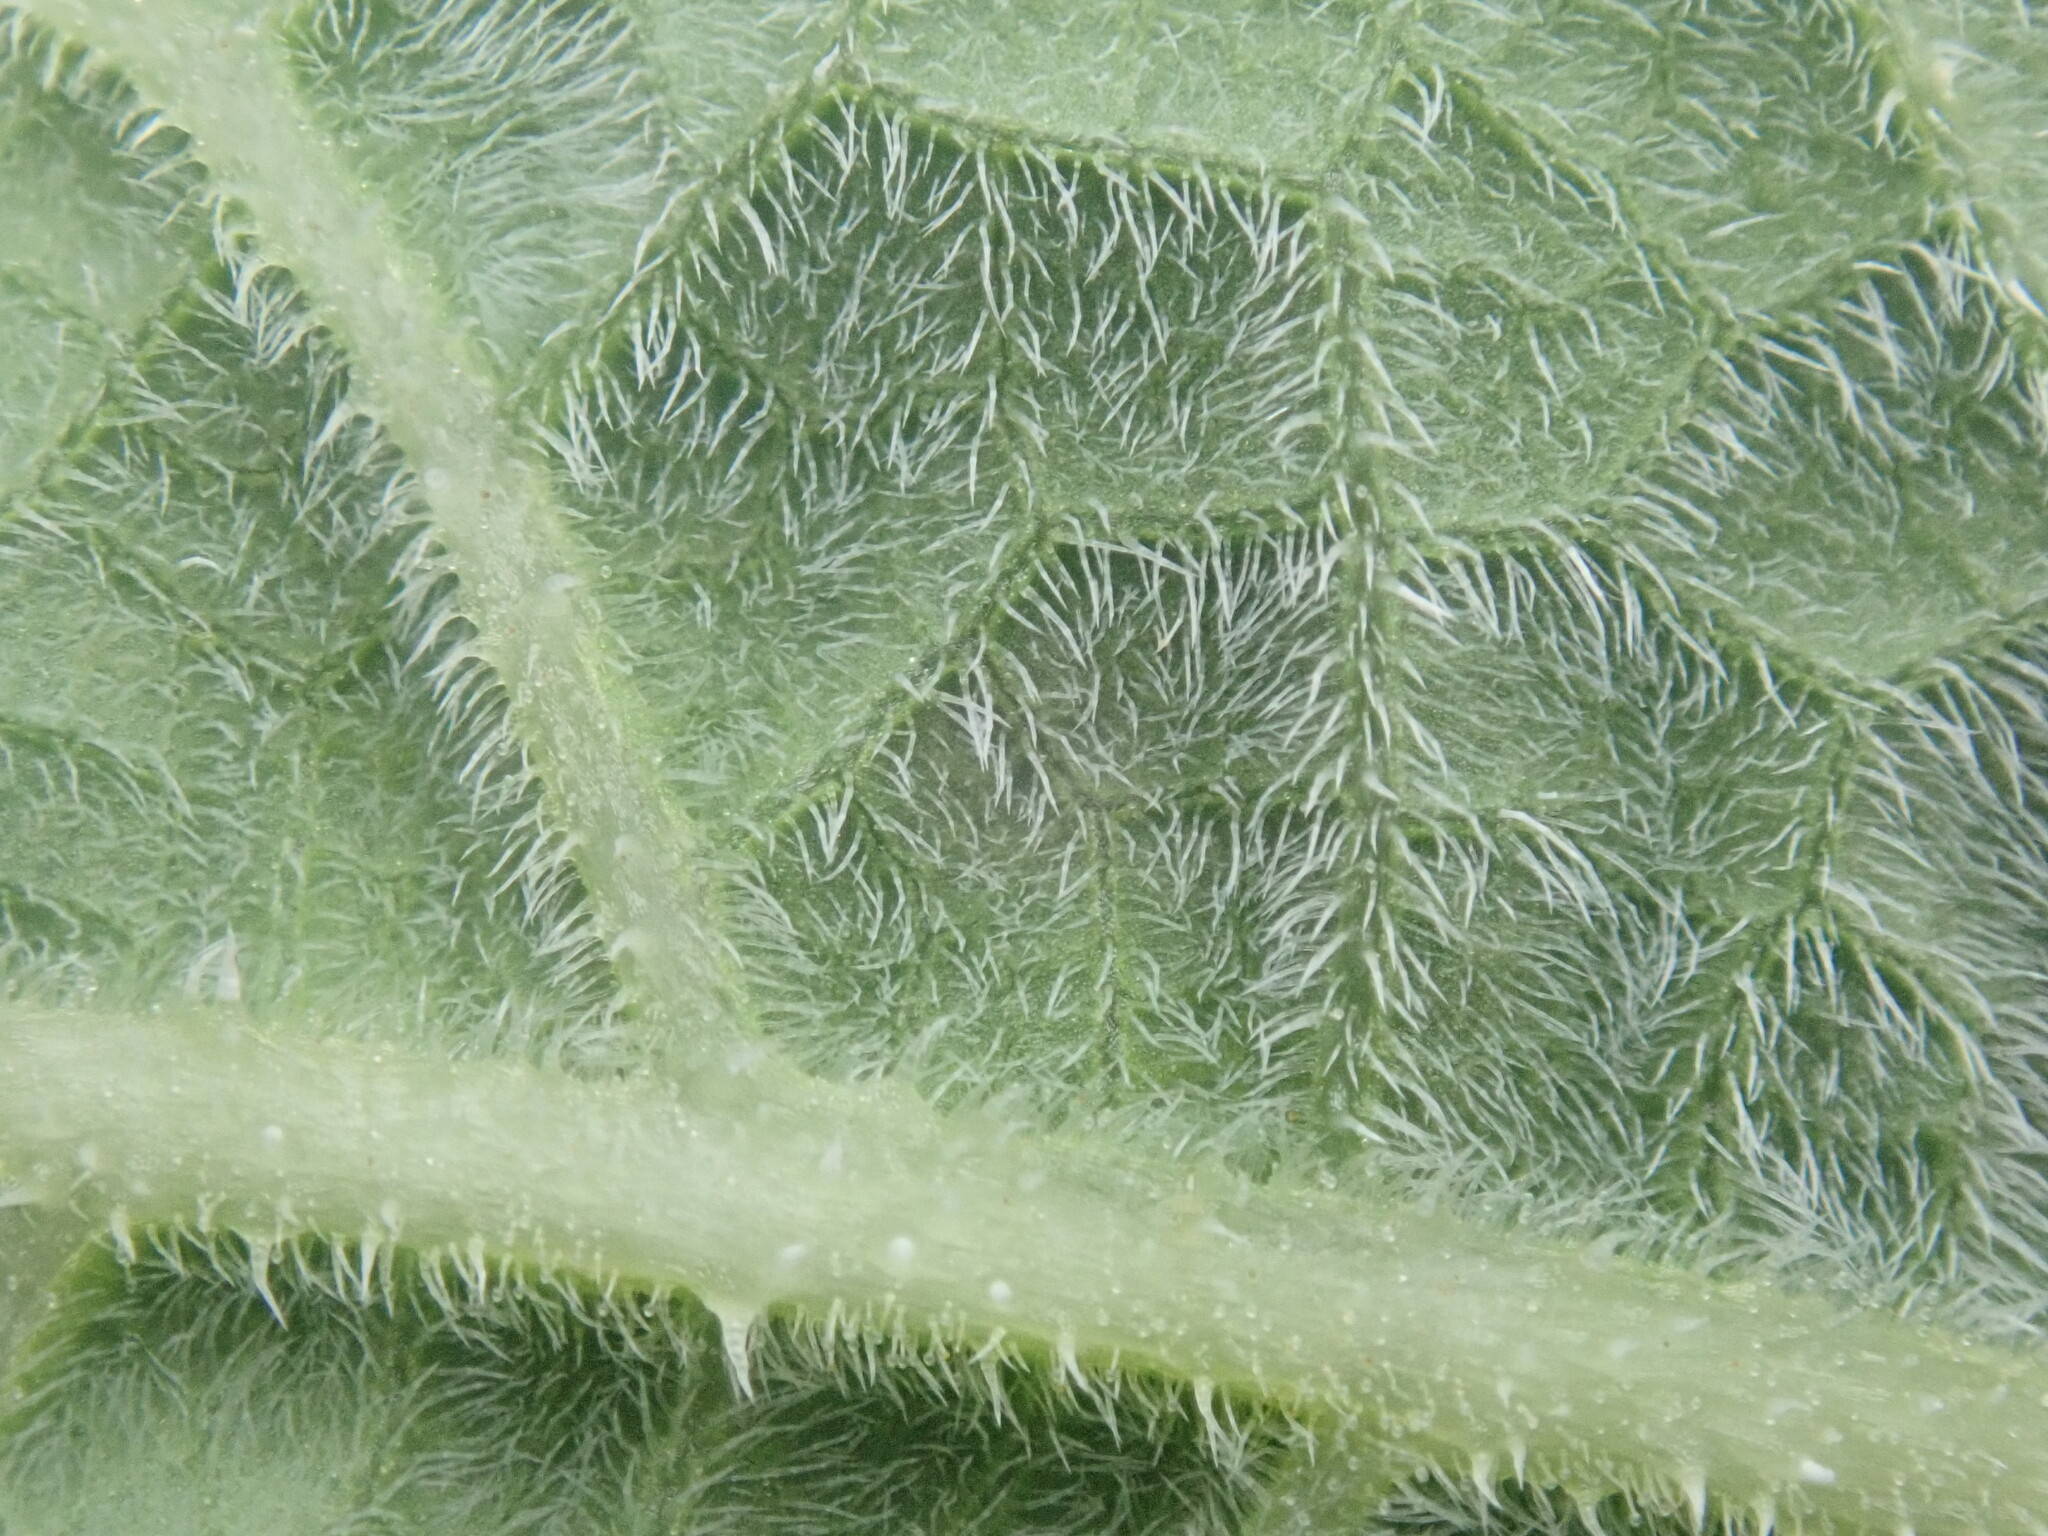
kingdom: Plantae
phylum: Tracheophyta
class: Magnoliopsida
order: Cucurbitales
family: Cucurbitaceae
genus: Cucurbita
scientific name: Cucurbita foetidissima
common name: Buffalo gourd
